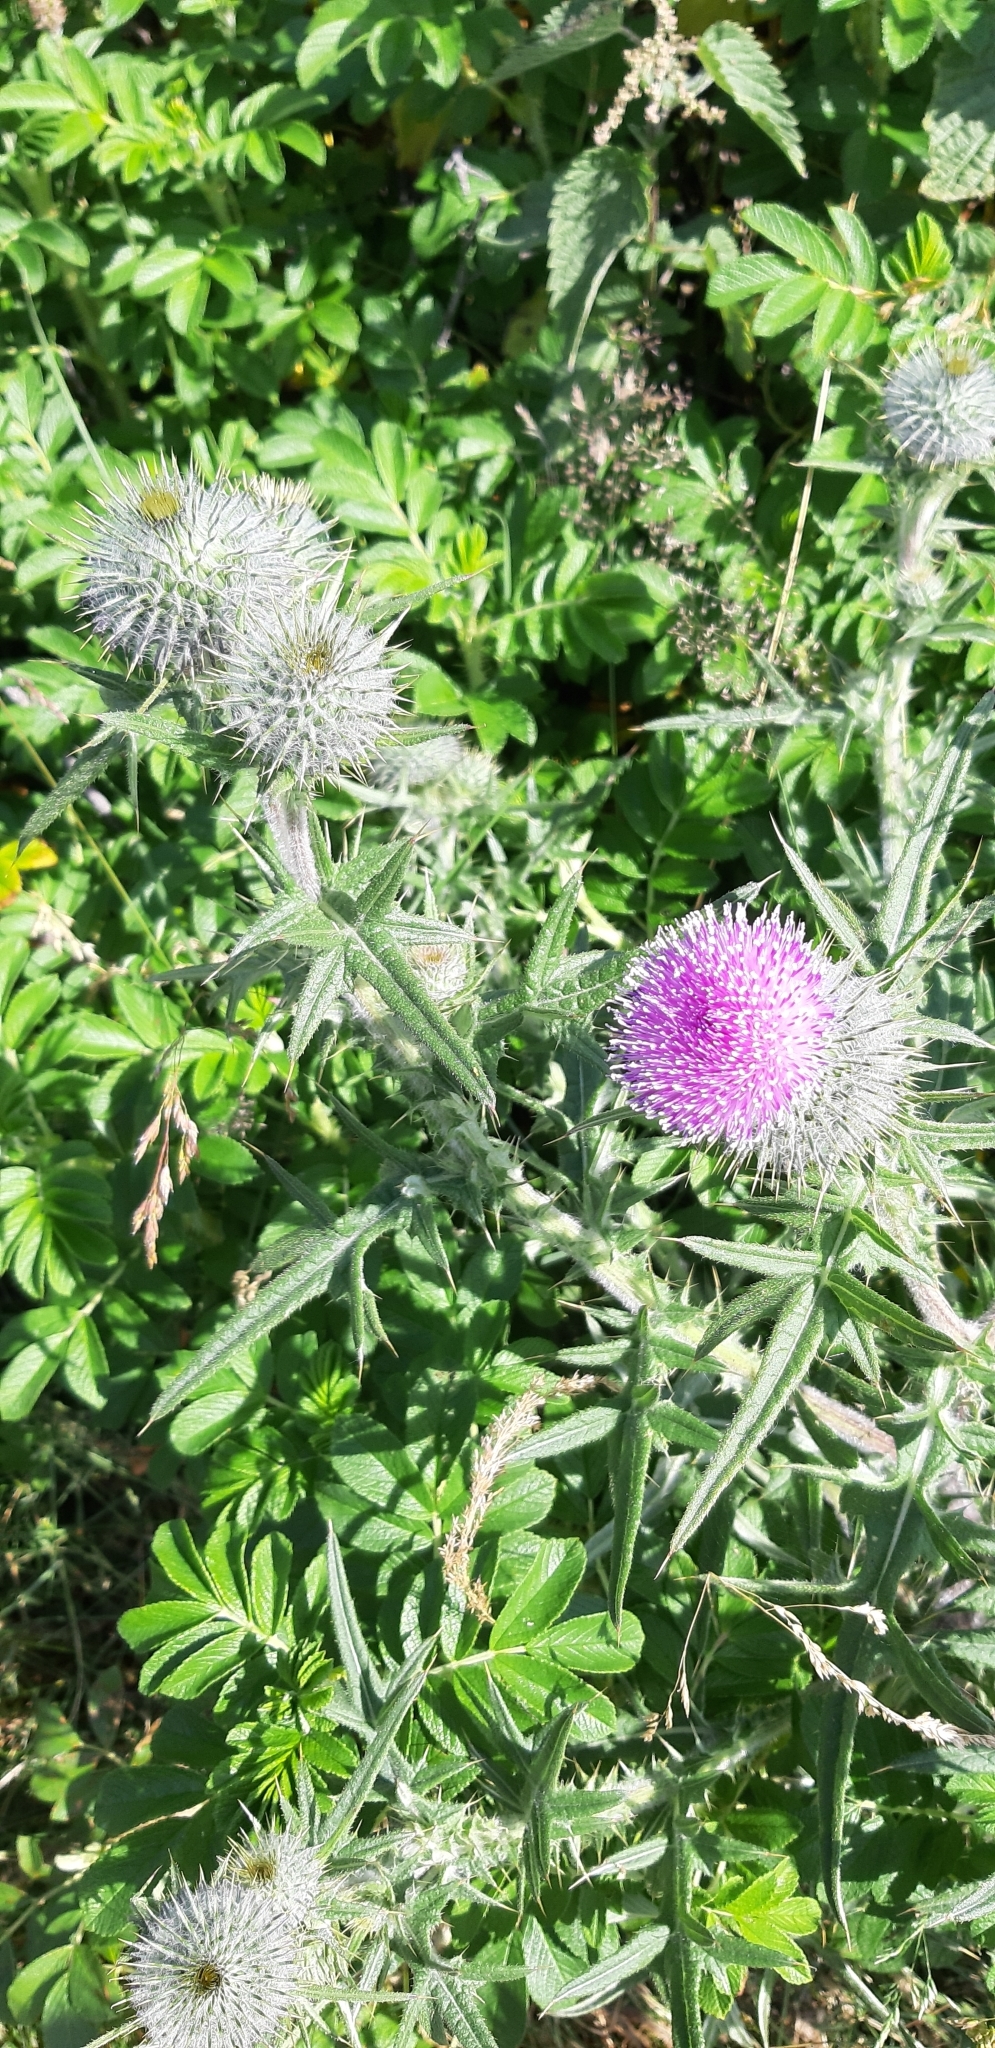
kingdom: Plantae
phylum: Tracheophyta
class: Magnoliopsida
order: Asterales
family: Asteraceae
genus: Cirsium
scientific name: Cirsium vulgare
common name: Bull thistle
